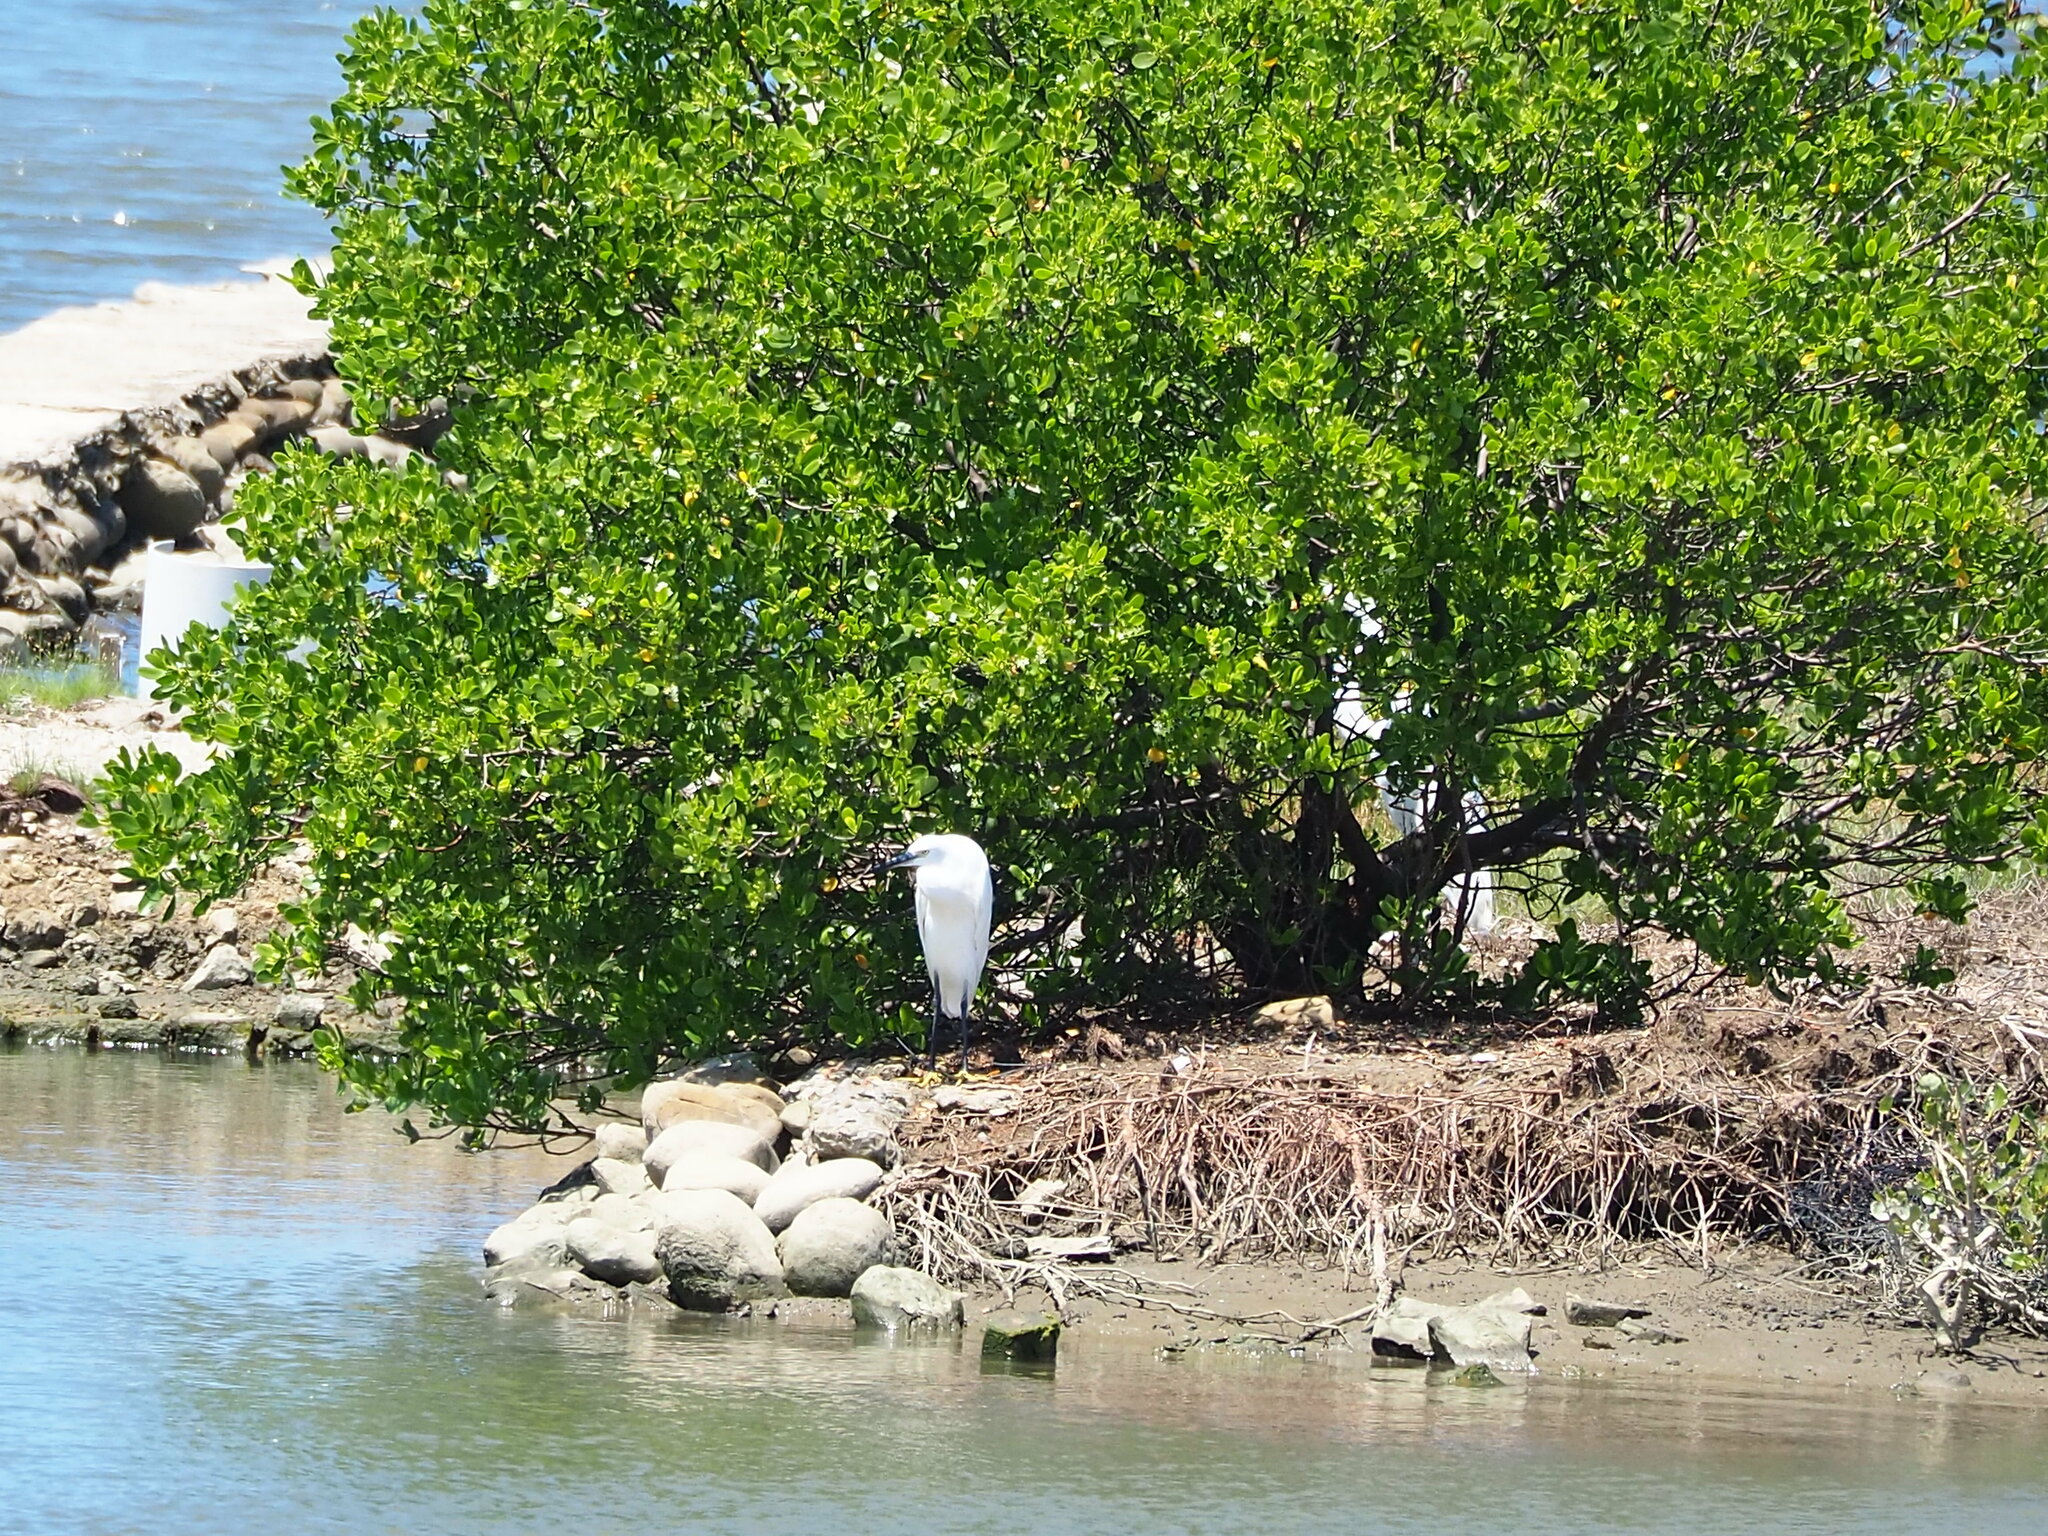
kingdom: Animalia
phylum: Chordata
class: Aves
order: Pelecaniformes
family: Ardeidae
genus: Egretta
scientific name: Egretta garzetta
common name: Little egret
